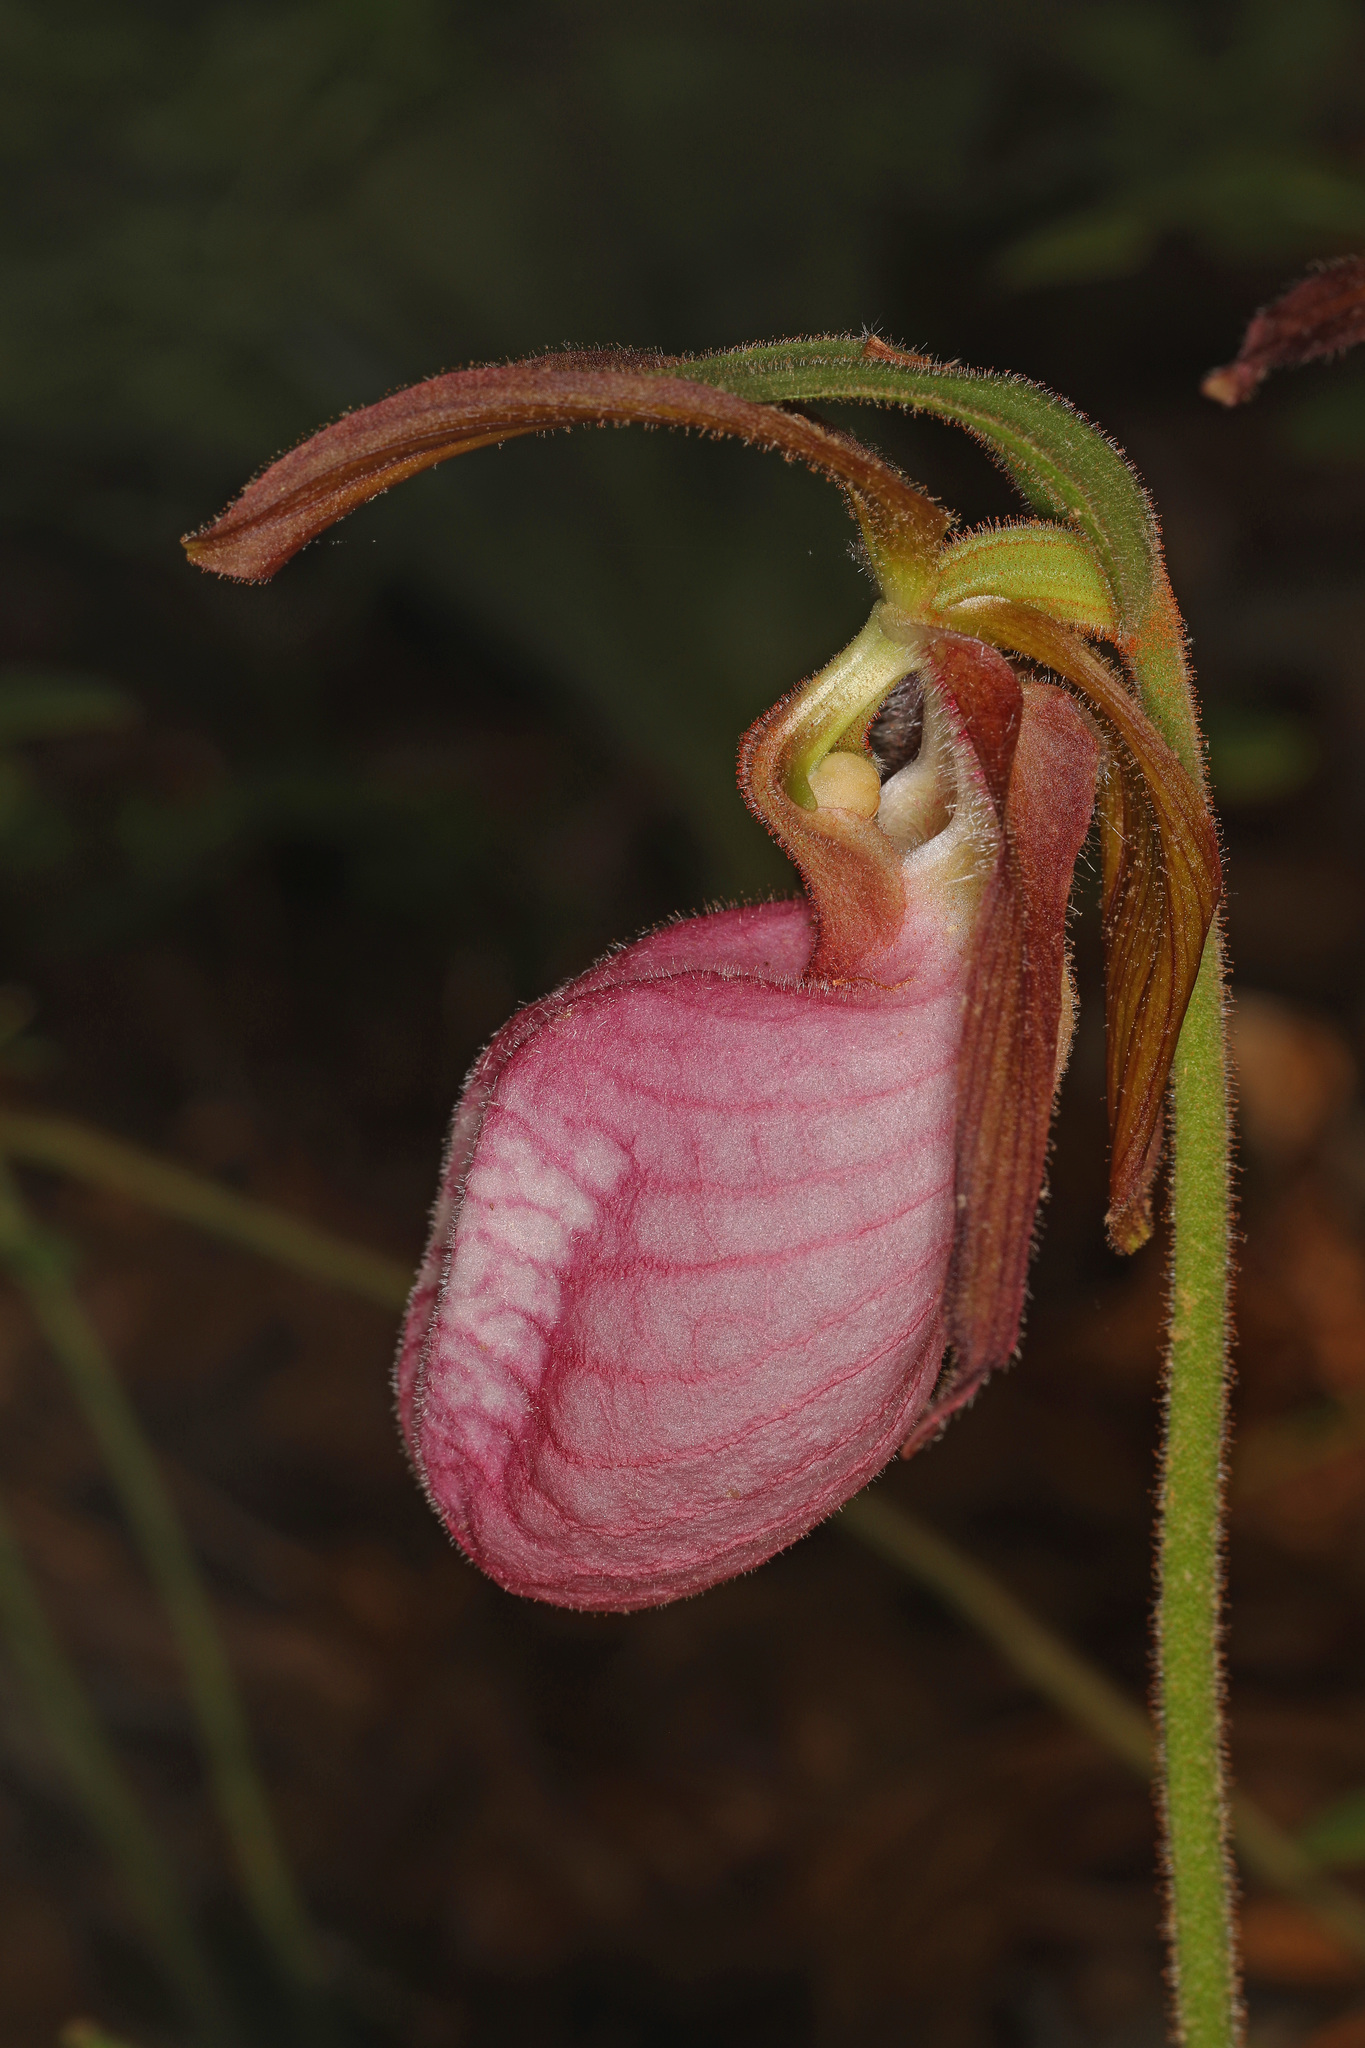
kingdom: Plantae
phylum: Tracheophyta
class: Liliopsida
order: Asparagales
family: Orchidaceae
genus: Cypripedium
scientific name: Cypripedium acaule
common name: Pink lady's-slipper
